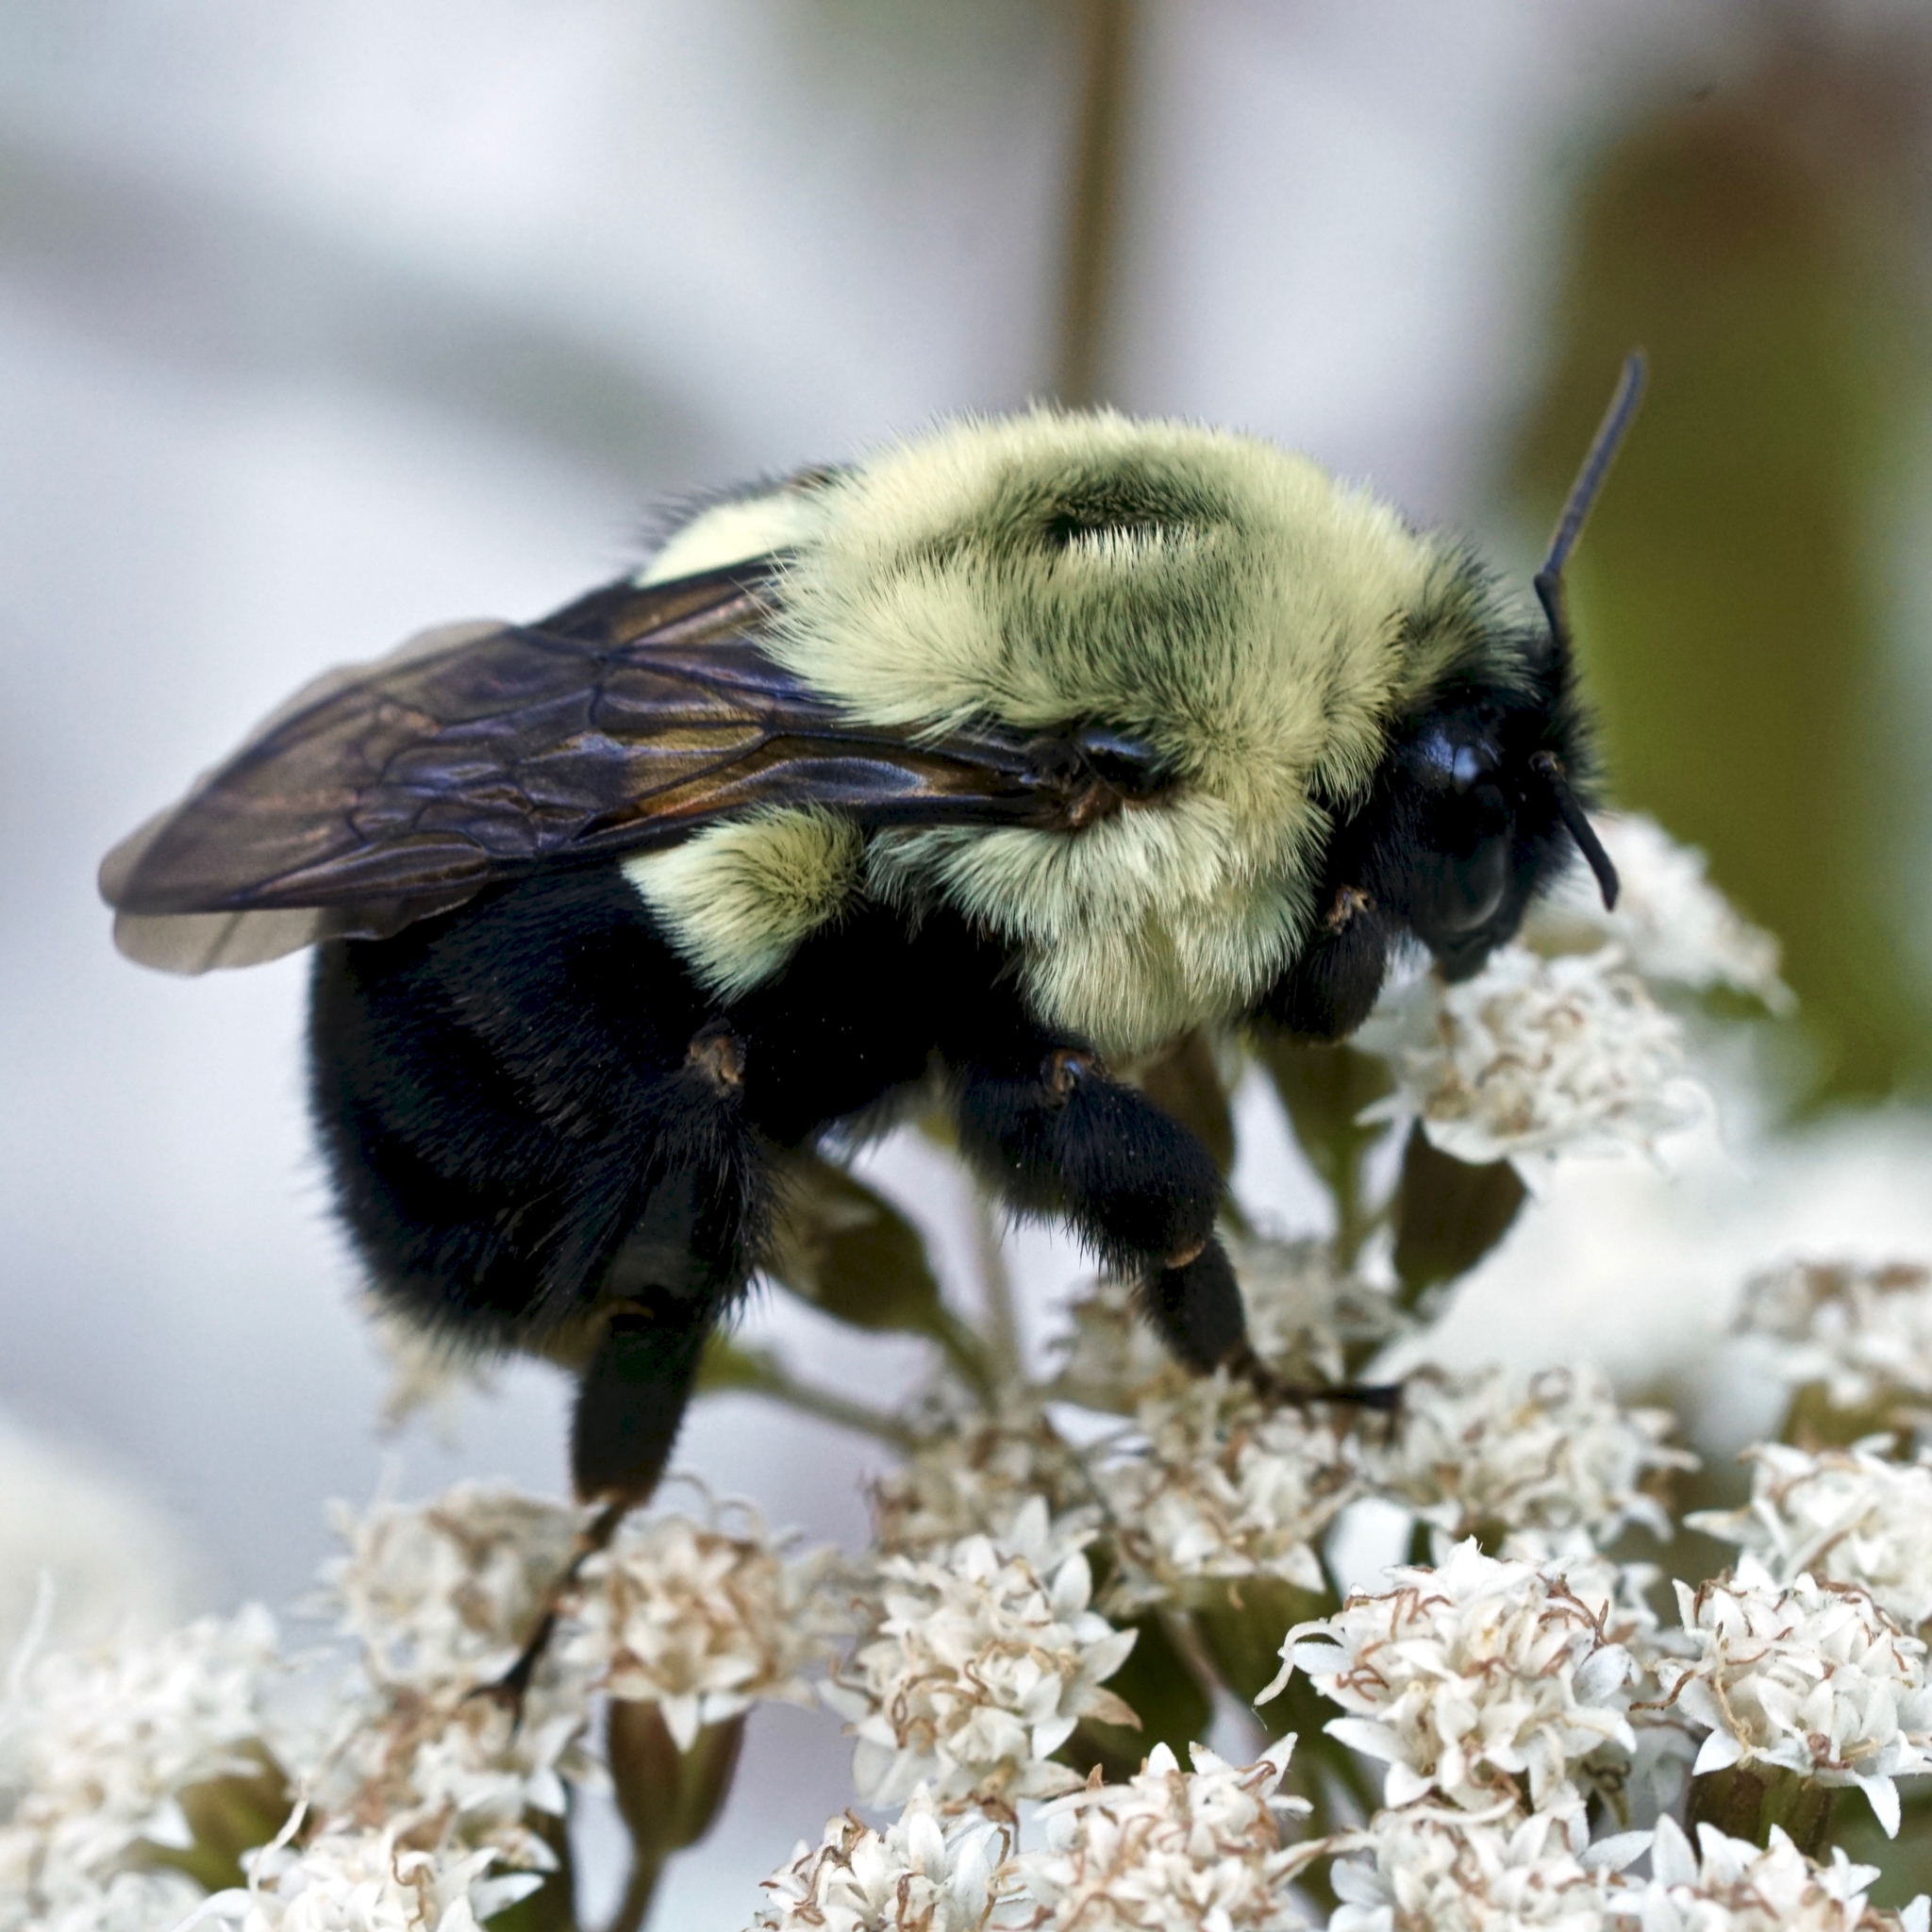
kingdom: Animalia
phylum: Arthropoda
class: Insecta
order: Hymenoptera
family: Apidae
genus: Bombus
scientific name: Bombus impatiens
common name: Common eastern bumble bee
